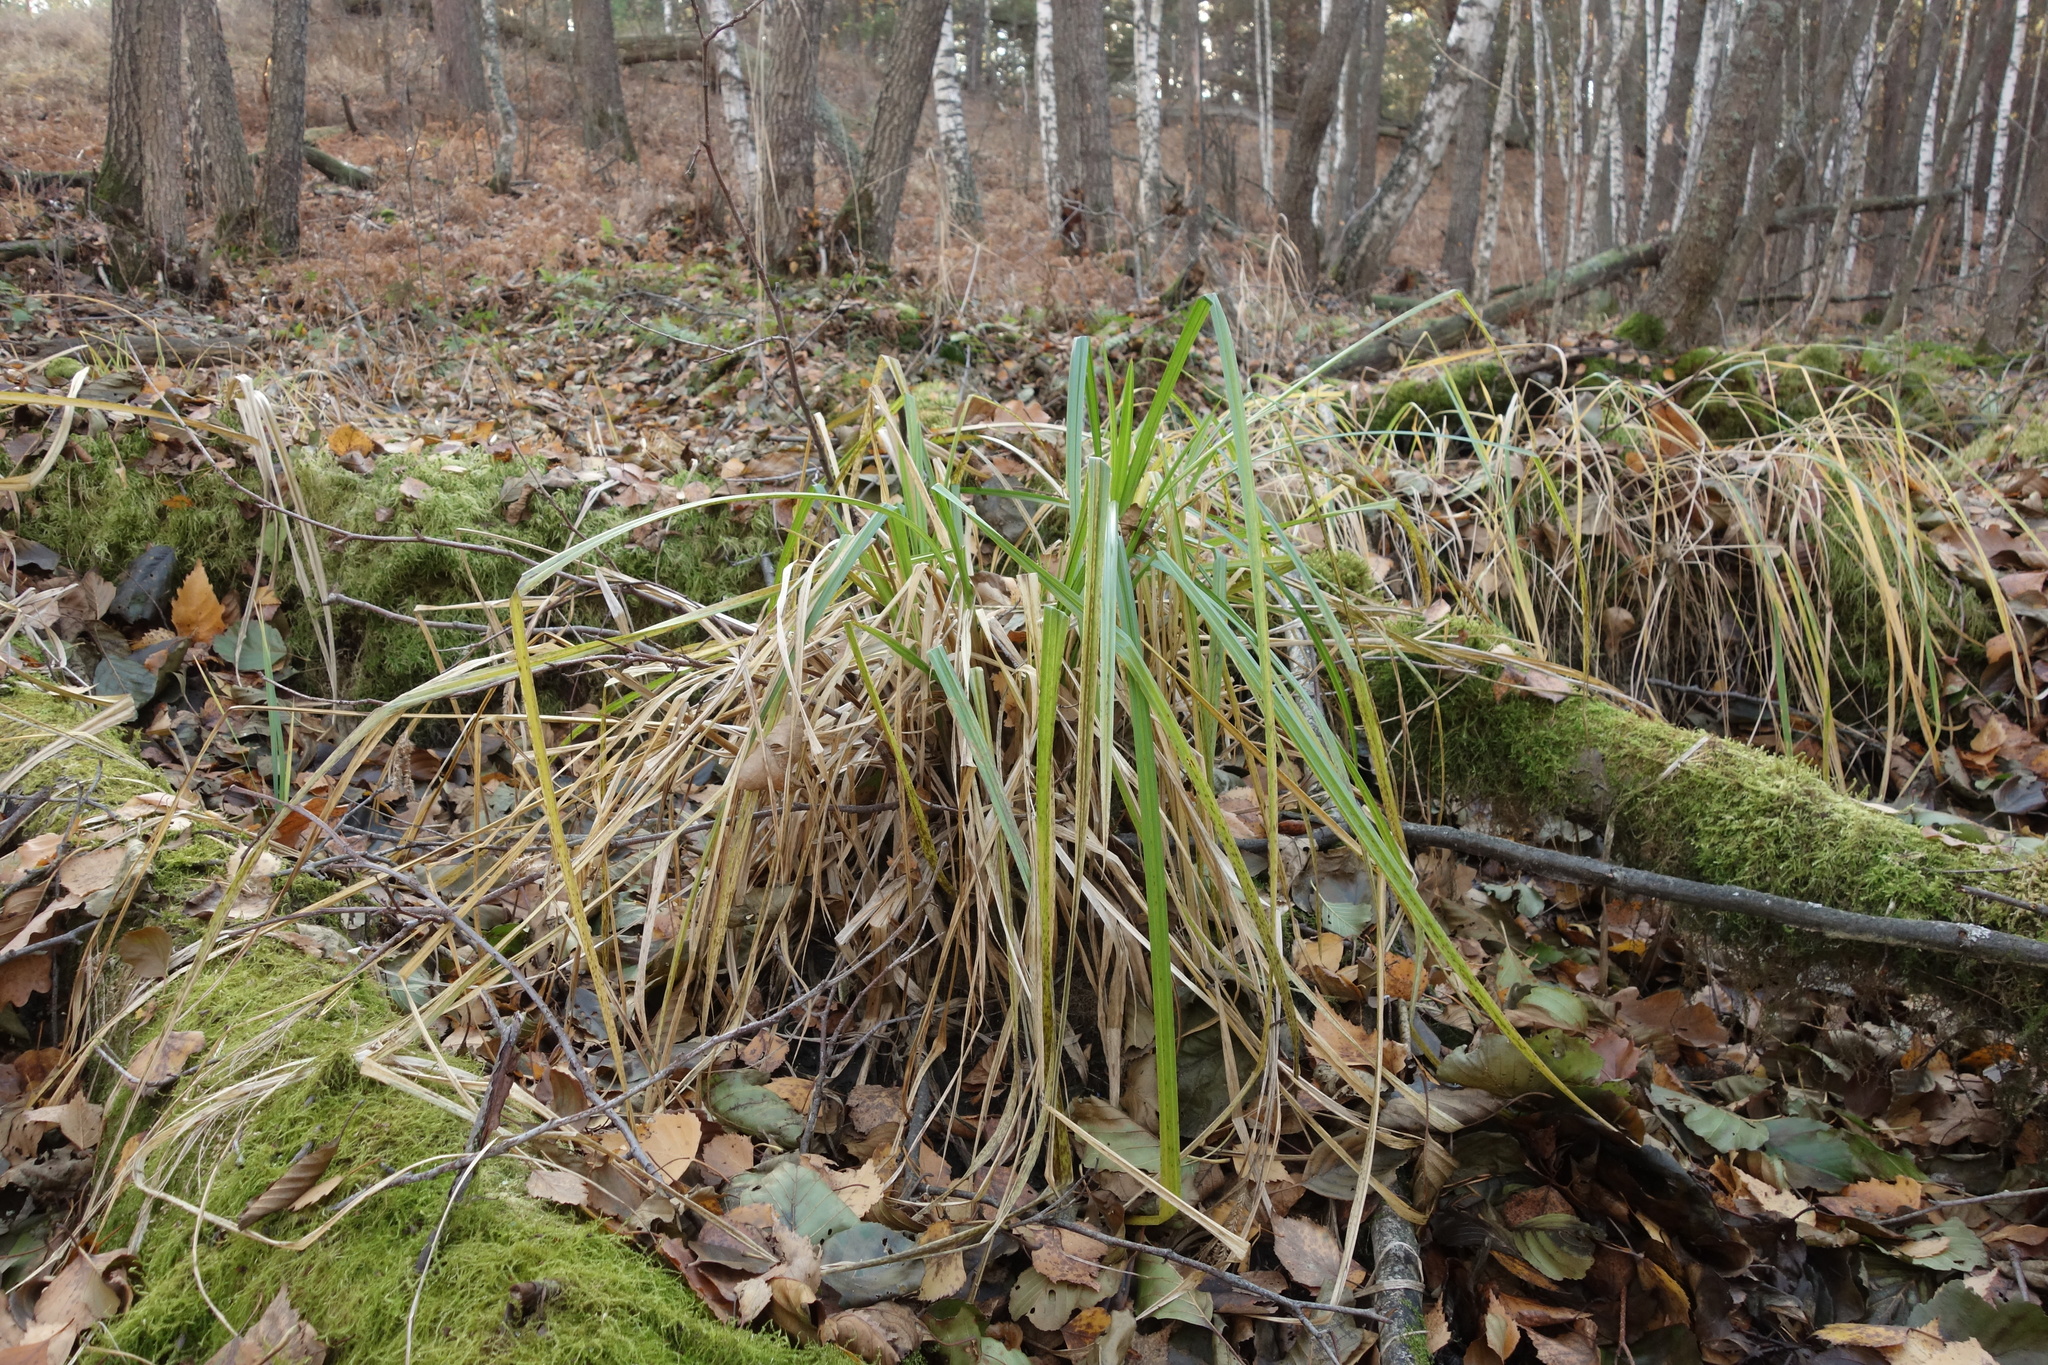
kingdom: Plantae
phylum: Tracheophyta
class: Liliopsida
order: Poales
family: Cyperaceae
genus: Carex
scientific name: Carex pseudocyperus
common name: Cyperus sedge
